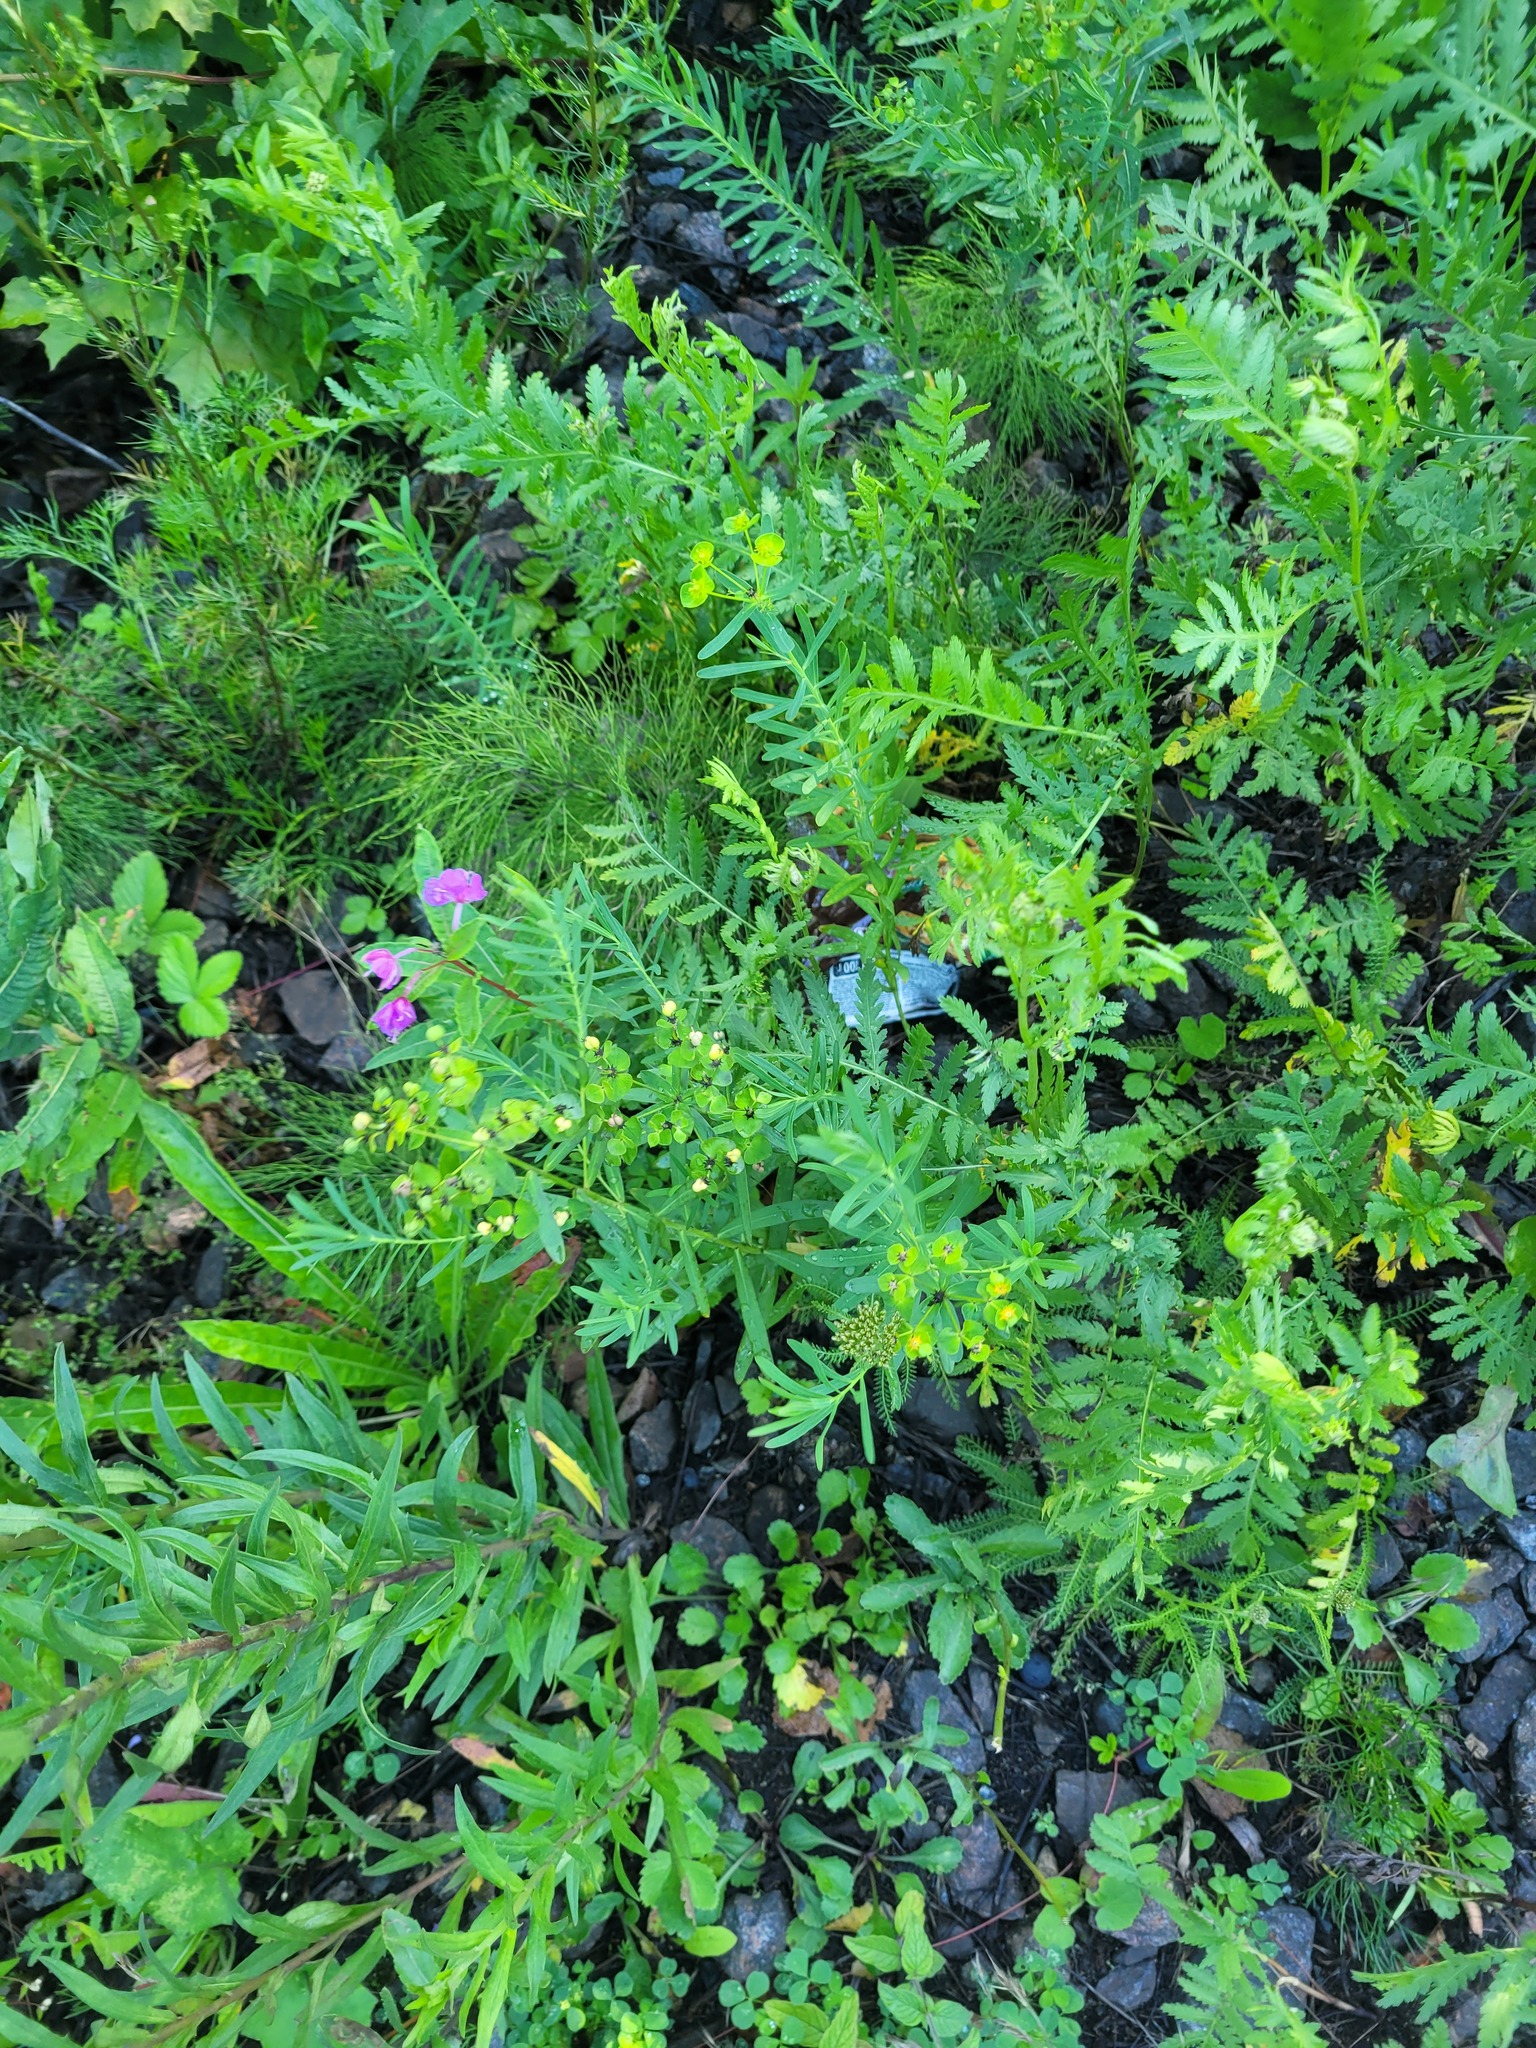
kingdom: Plantae
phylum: Tracheophyta
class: Magnoliopsida
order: Malpighiales
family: Euphorbiaceae
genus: Euphorbia
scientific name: Euphorbia virgata
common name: Leafy spurge
